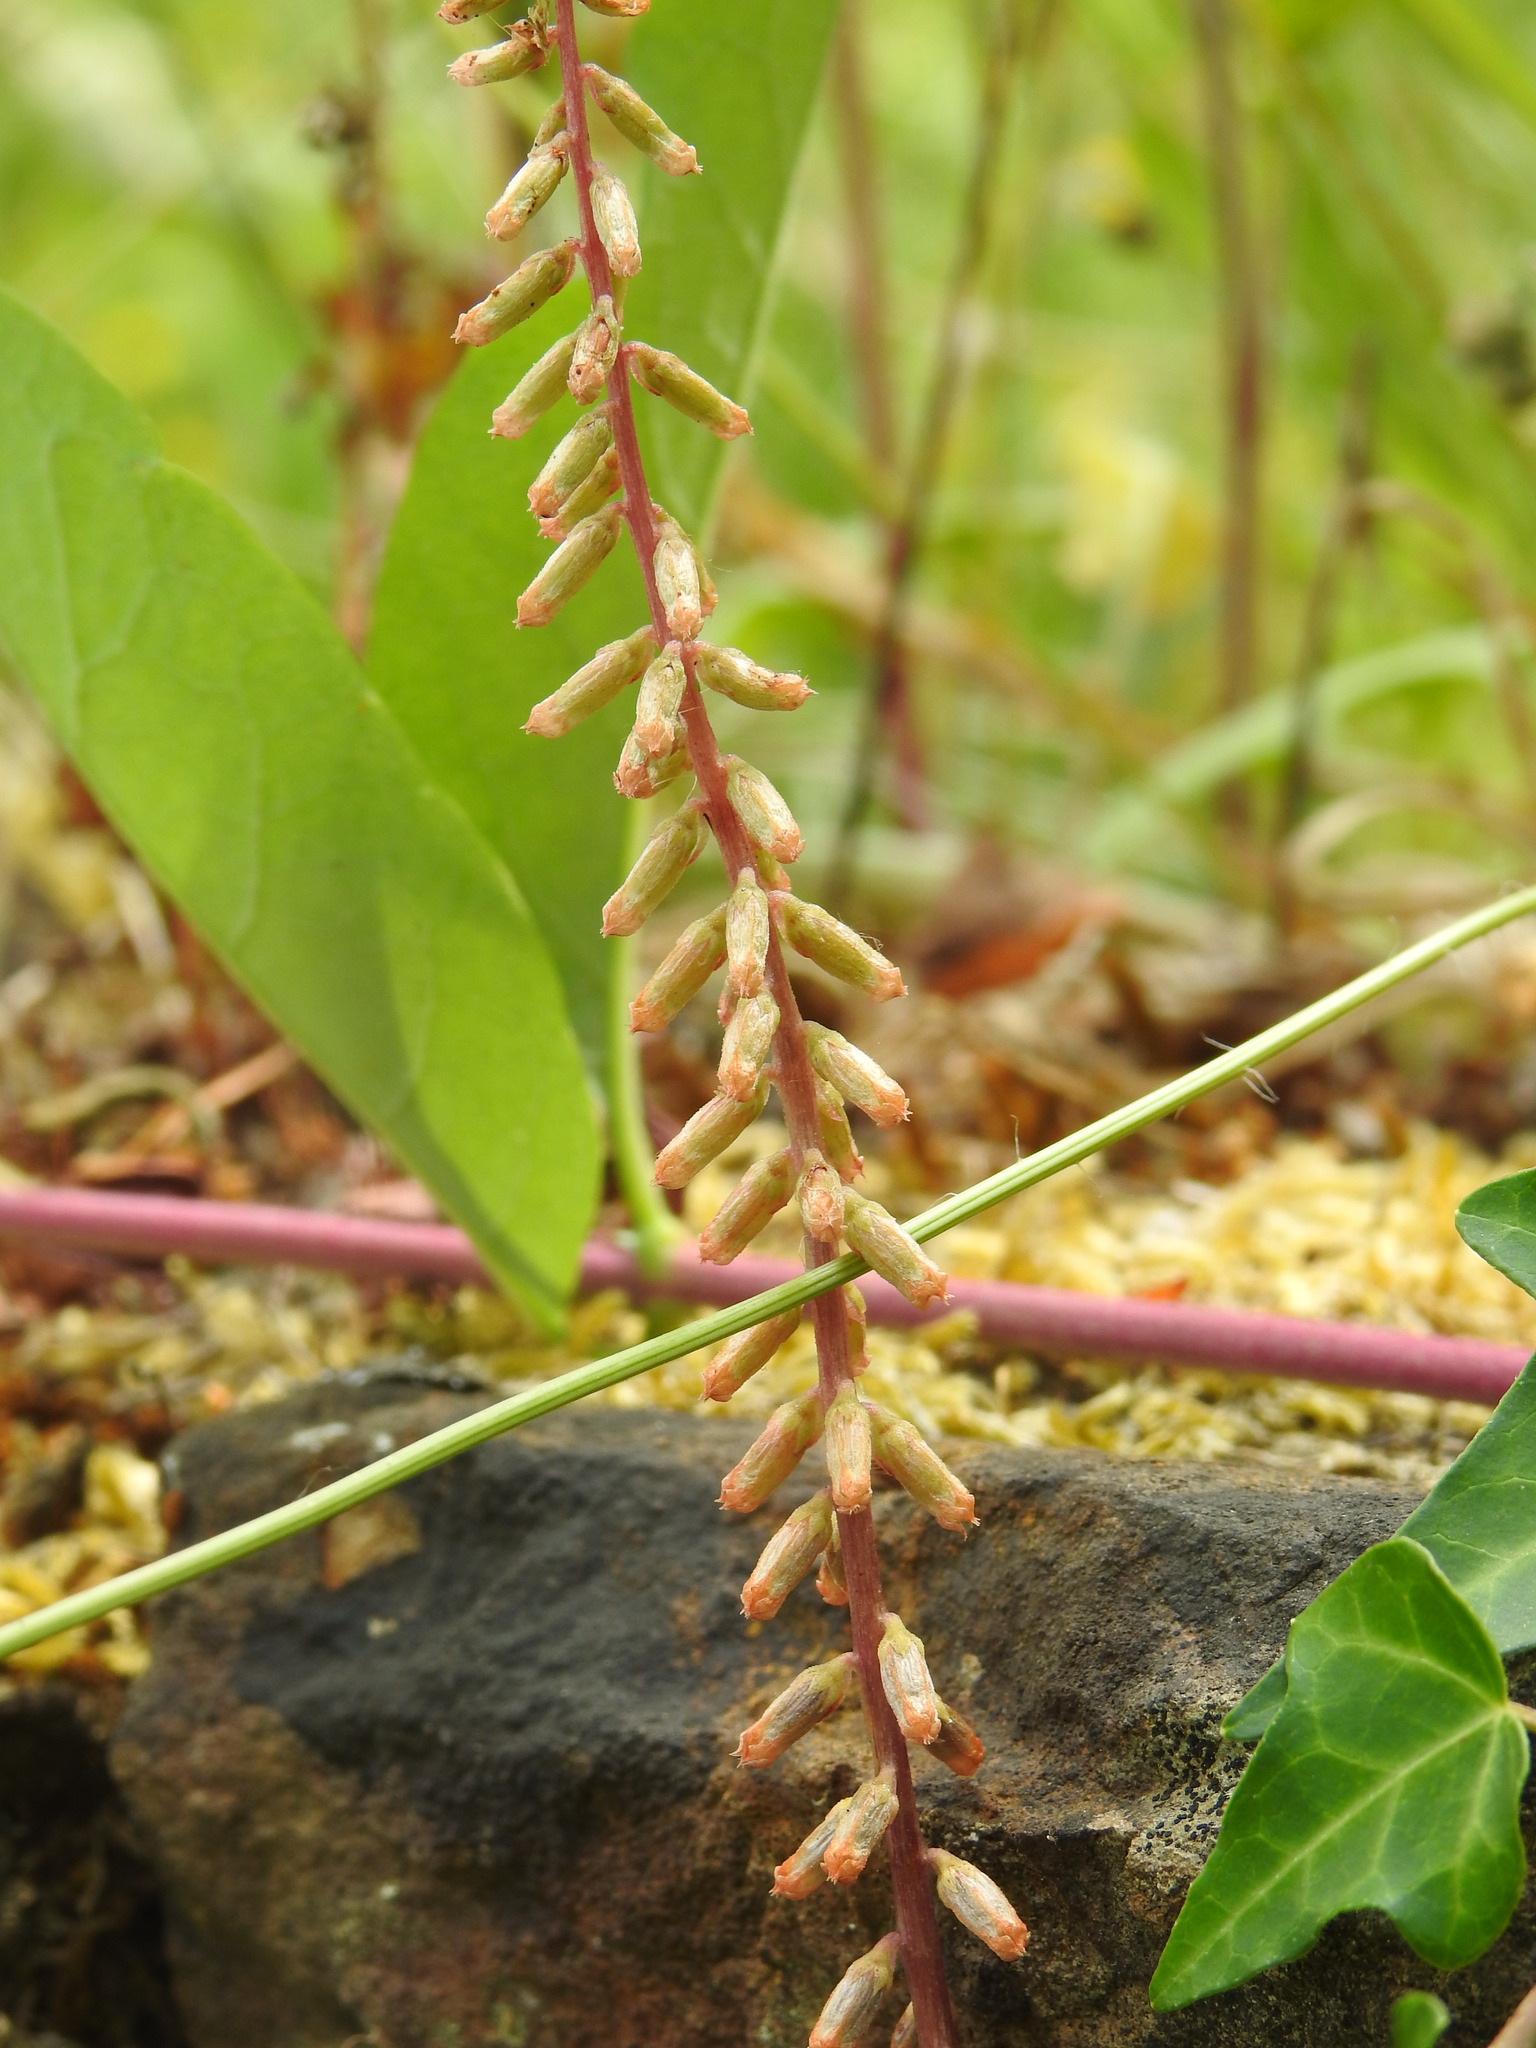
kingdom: Plantae
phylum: Tracheophyta
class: Magnoliopsida
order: Saxifragales
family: Crassulaceae
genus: Umbilicus
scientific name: Umbilicus rupestris
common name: Navelwort
